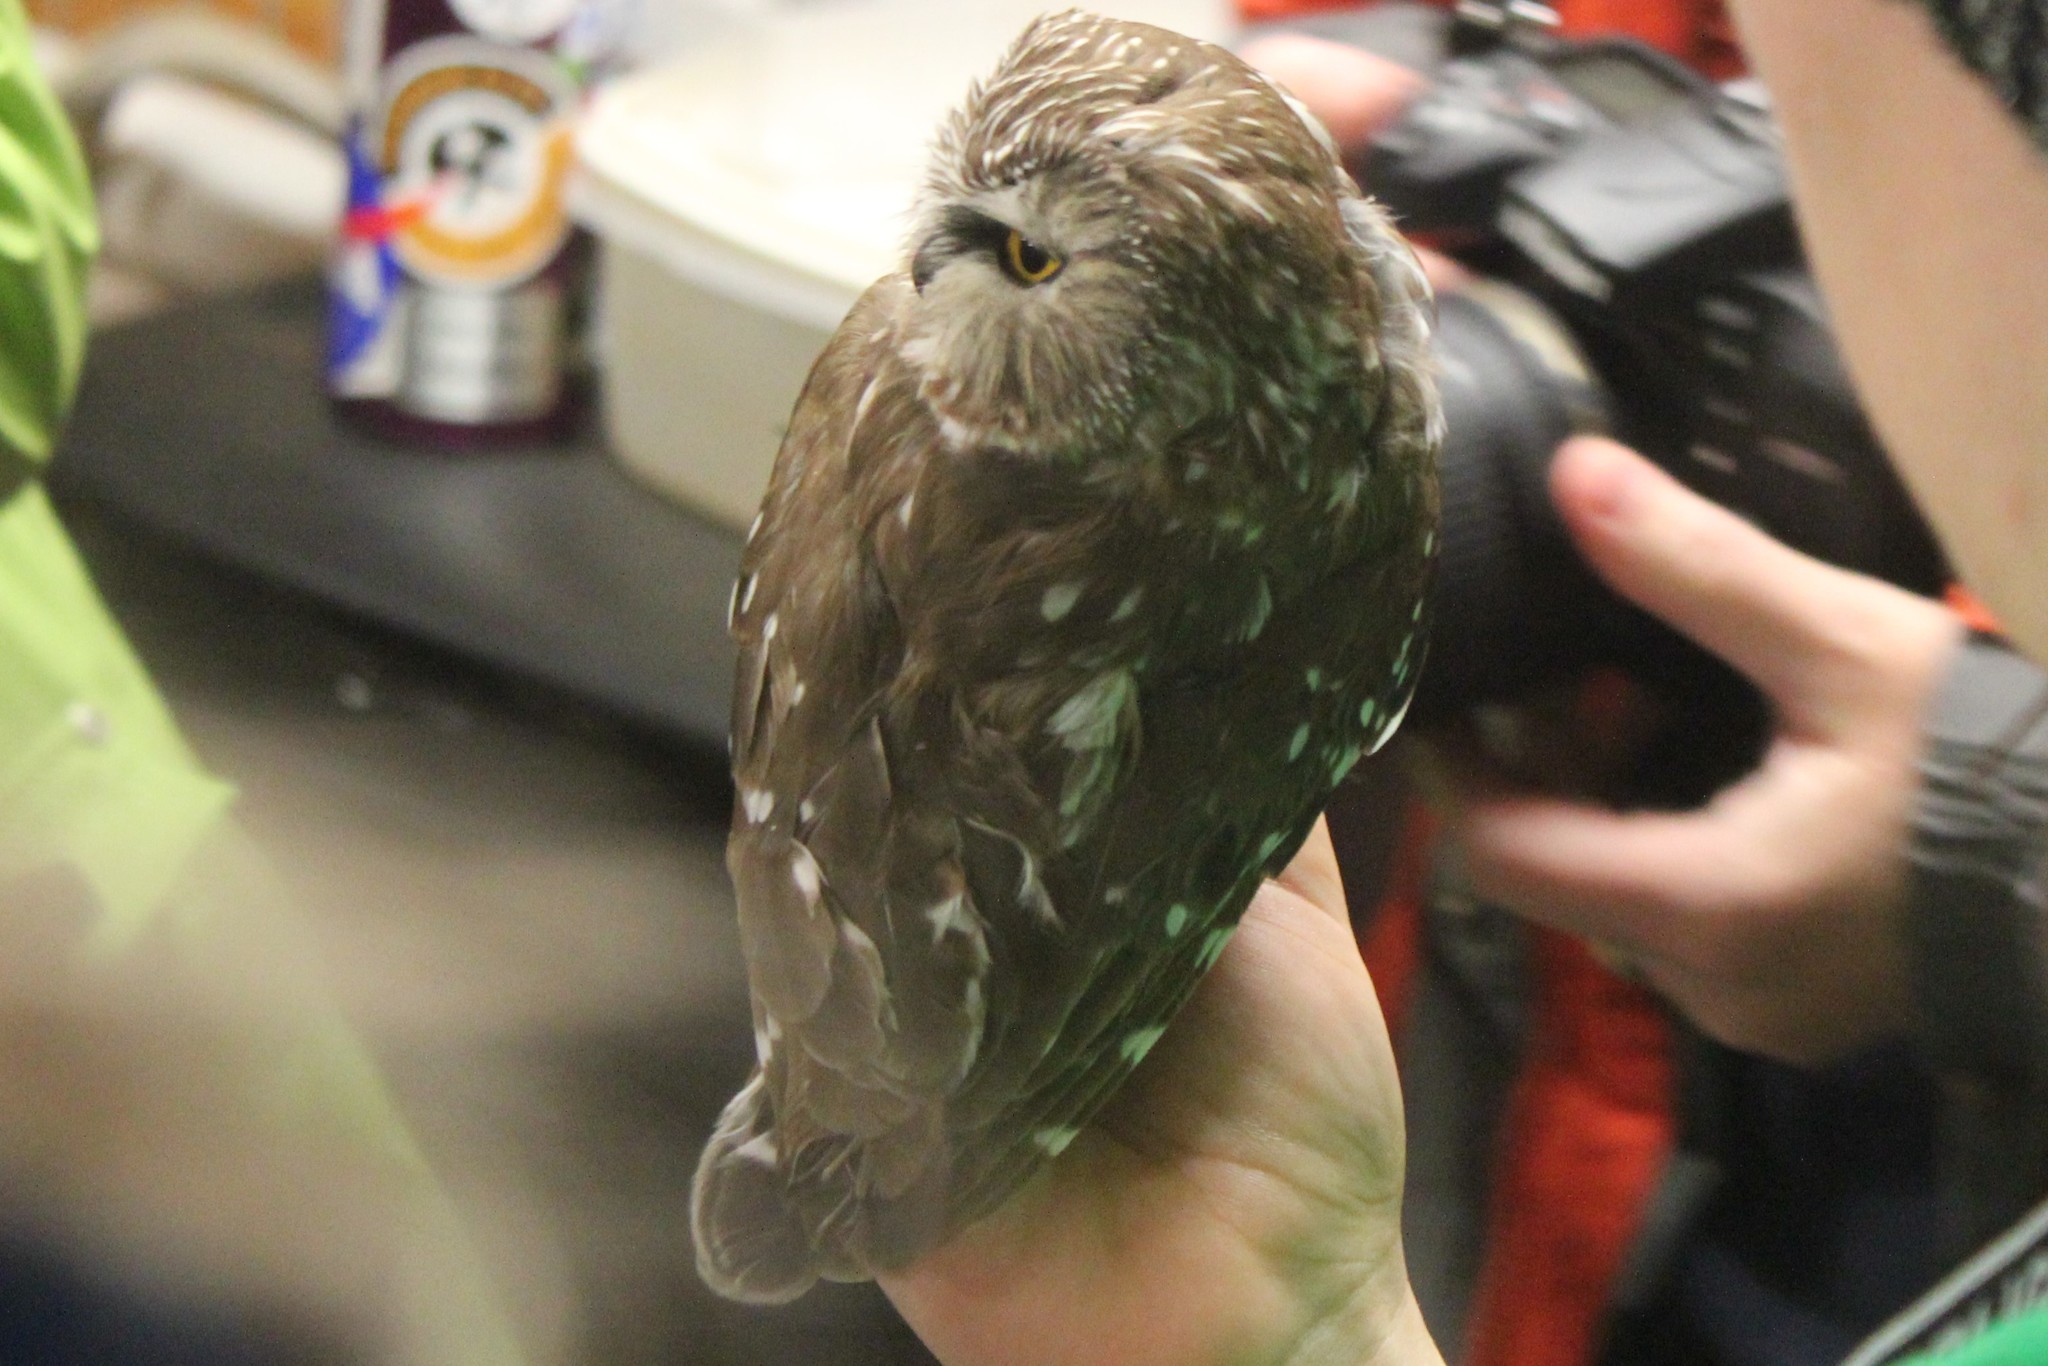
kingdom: Animalia
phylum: Chordata
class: Aves
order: Strigiformes
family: Strigidae
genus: Aegolius
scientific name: Aegolius acadicus
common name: Northern saw-whet owl
